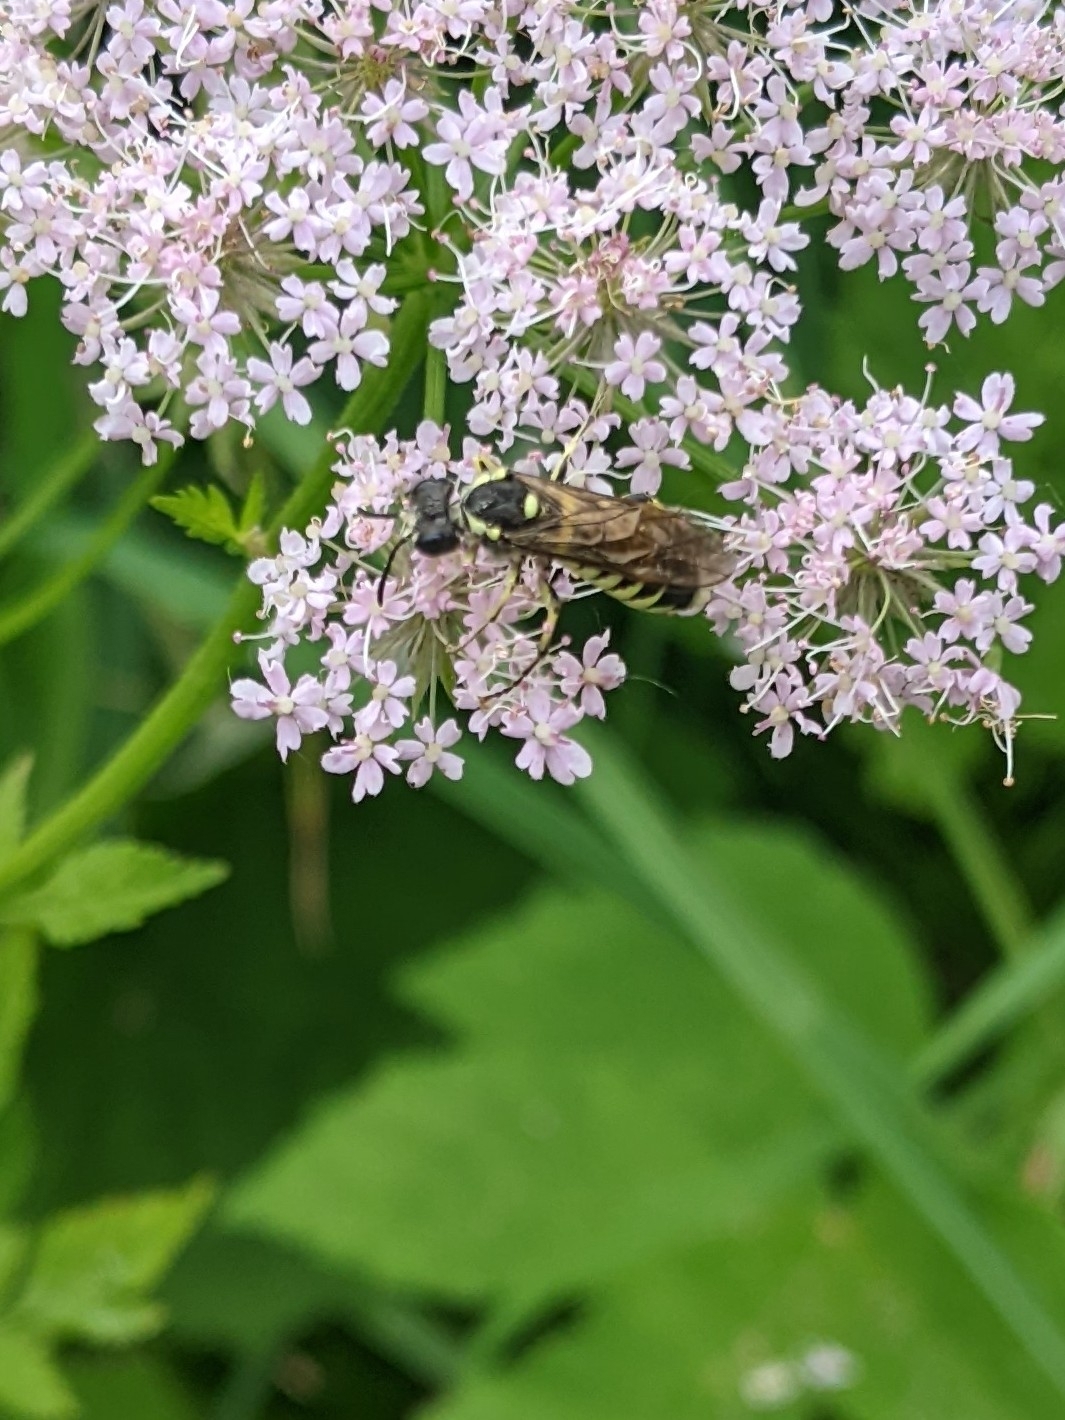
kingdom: Animalia
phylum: Arthropoda
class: Insecta
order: Hymenoptera
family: Tenthredinidae
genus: Tenthredo
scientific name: Tenthredo notha
